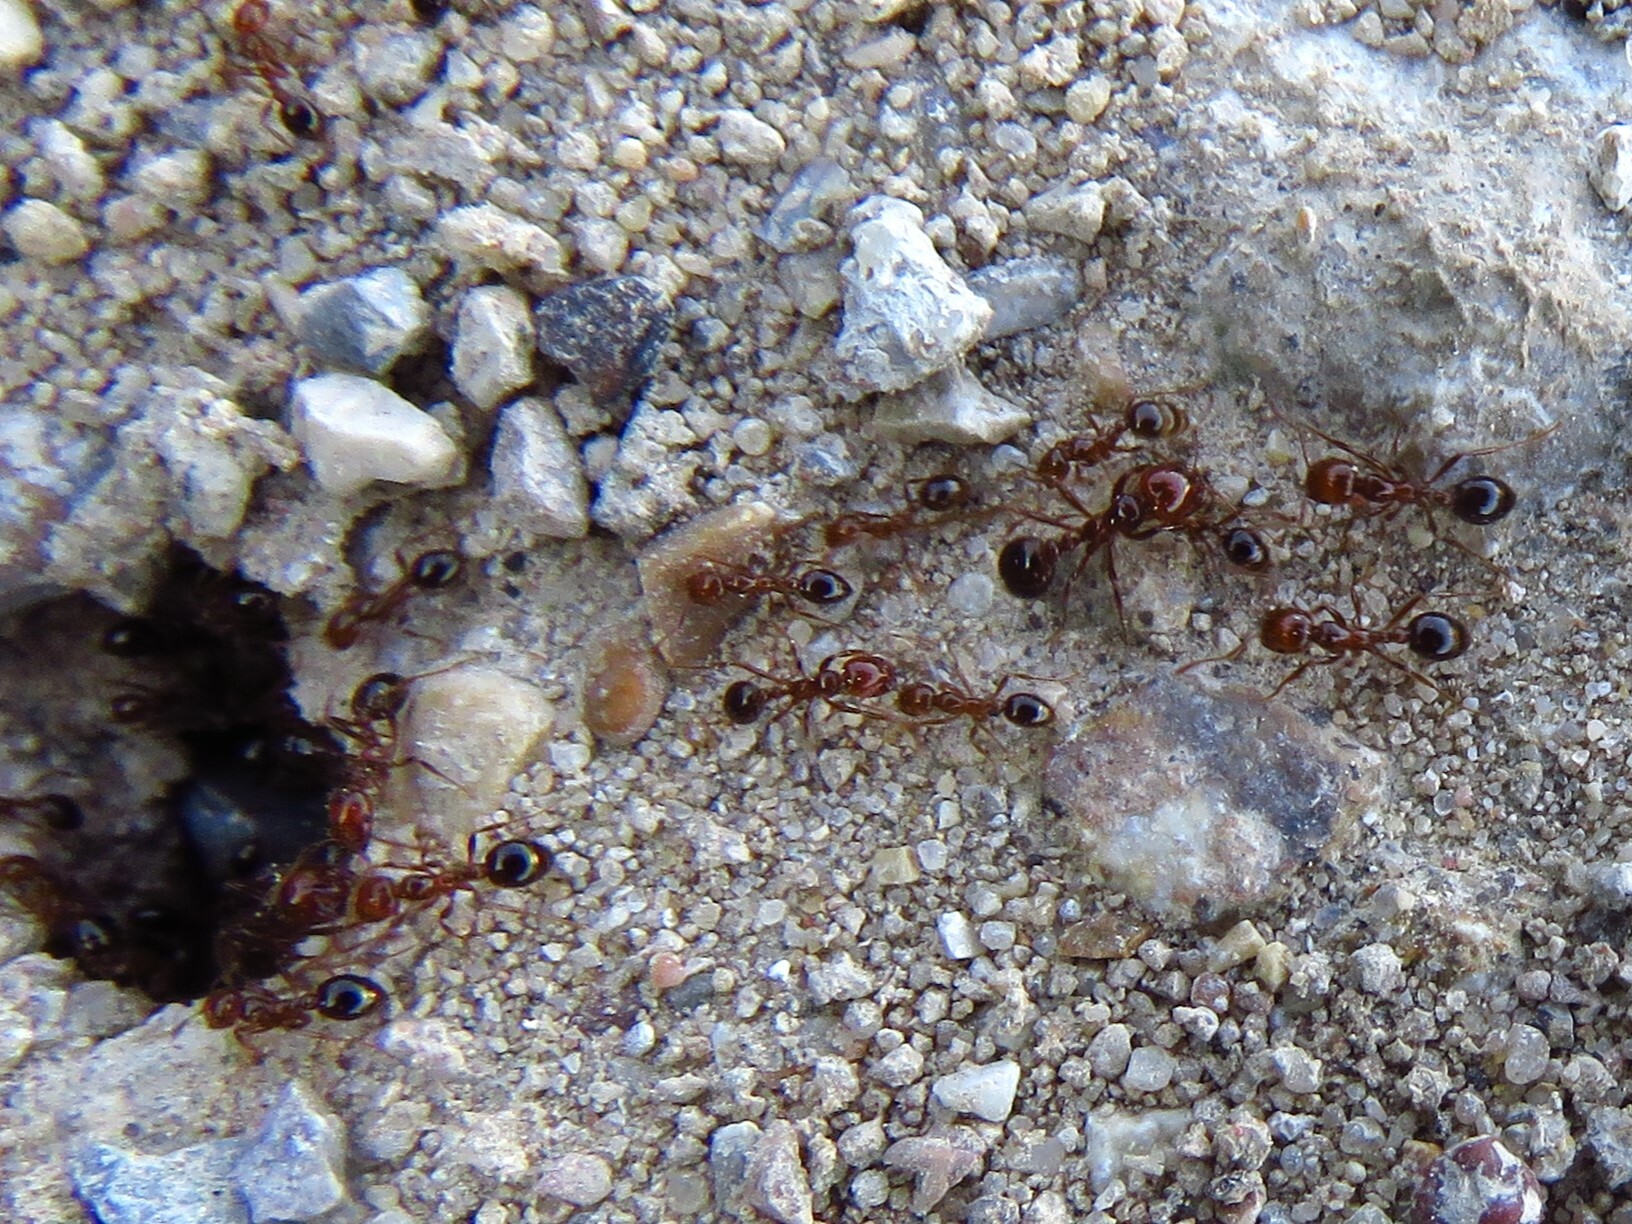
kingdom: Animalia
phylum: Arthropoda
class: Insecta
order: Hymenoptera
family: Formicidae
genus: Solenopsis
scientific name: Solenopsis invicta
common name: Red imported fire ant
